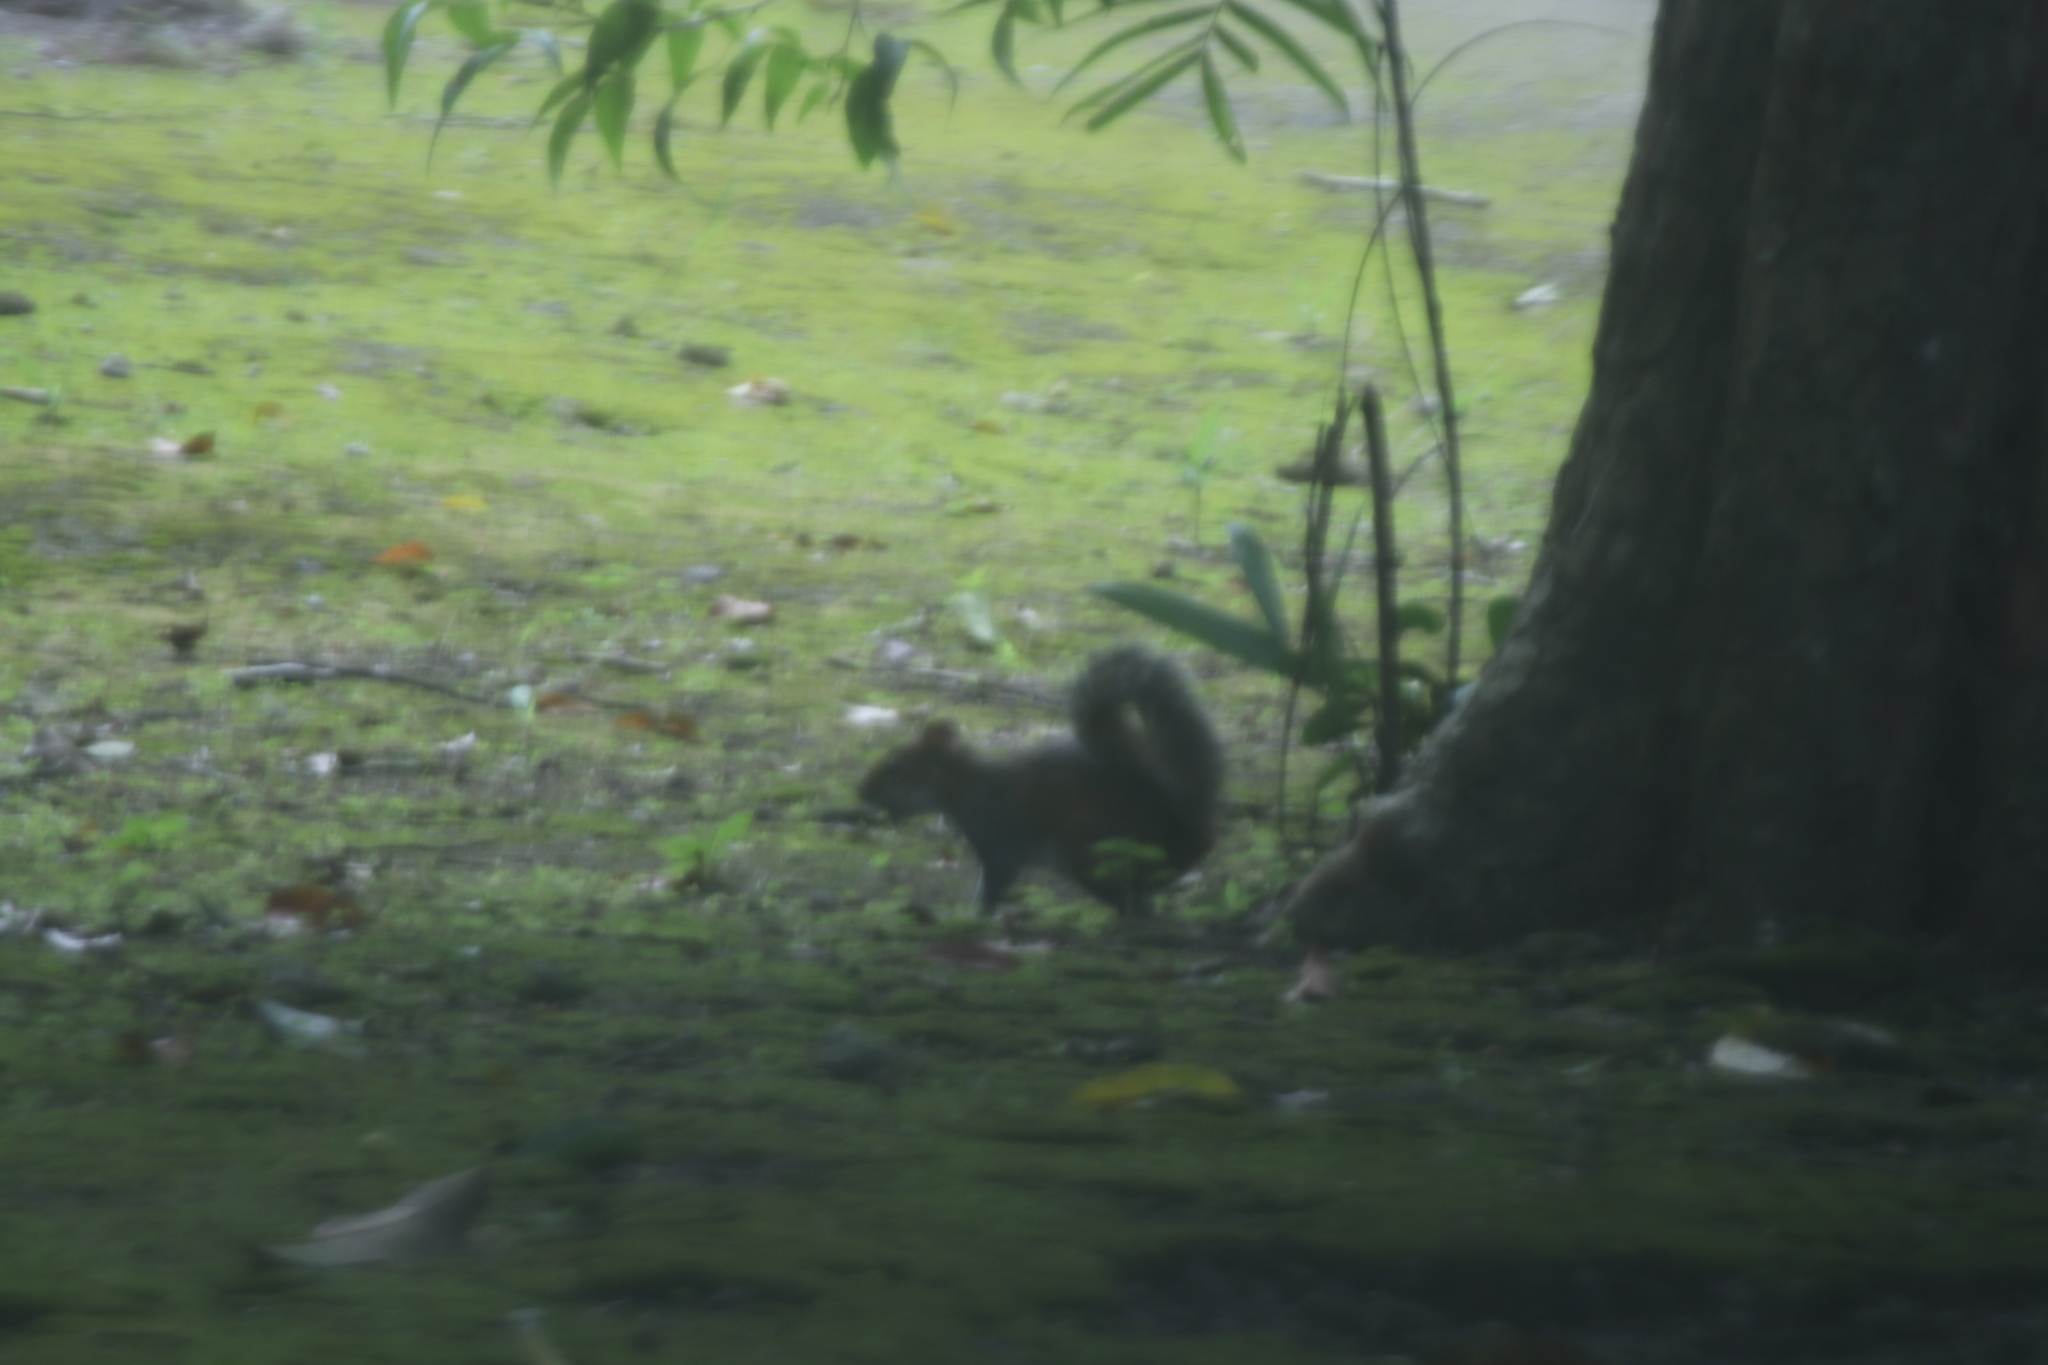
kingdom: Animalia
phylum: Chordata
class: Mammalia
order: Rodentia
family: Sciuridae
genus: Sciurus
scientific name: Sciurus deppei
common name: Deppe's squirrel
